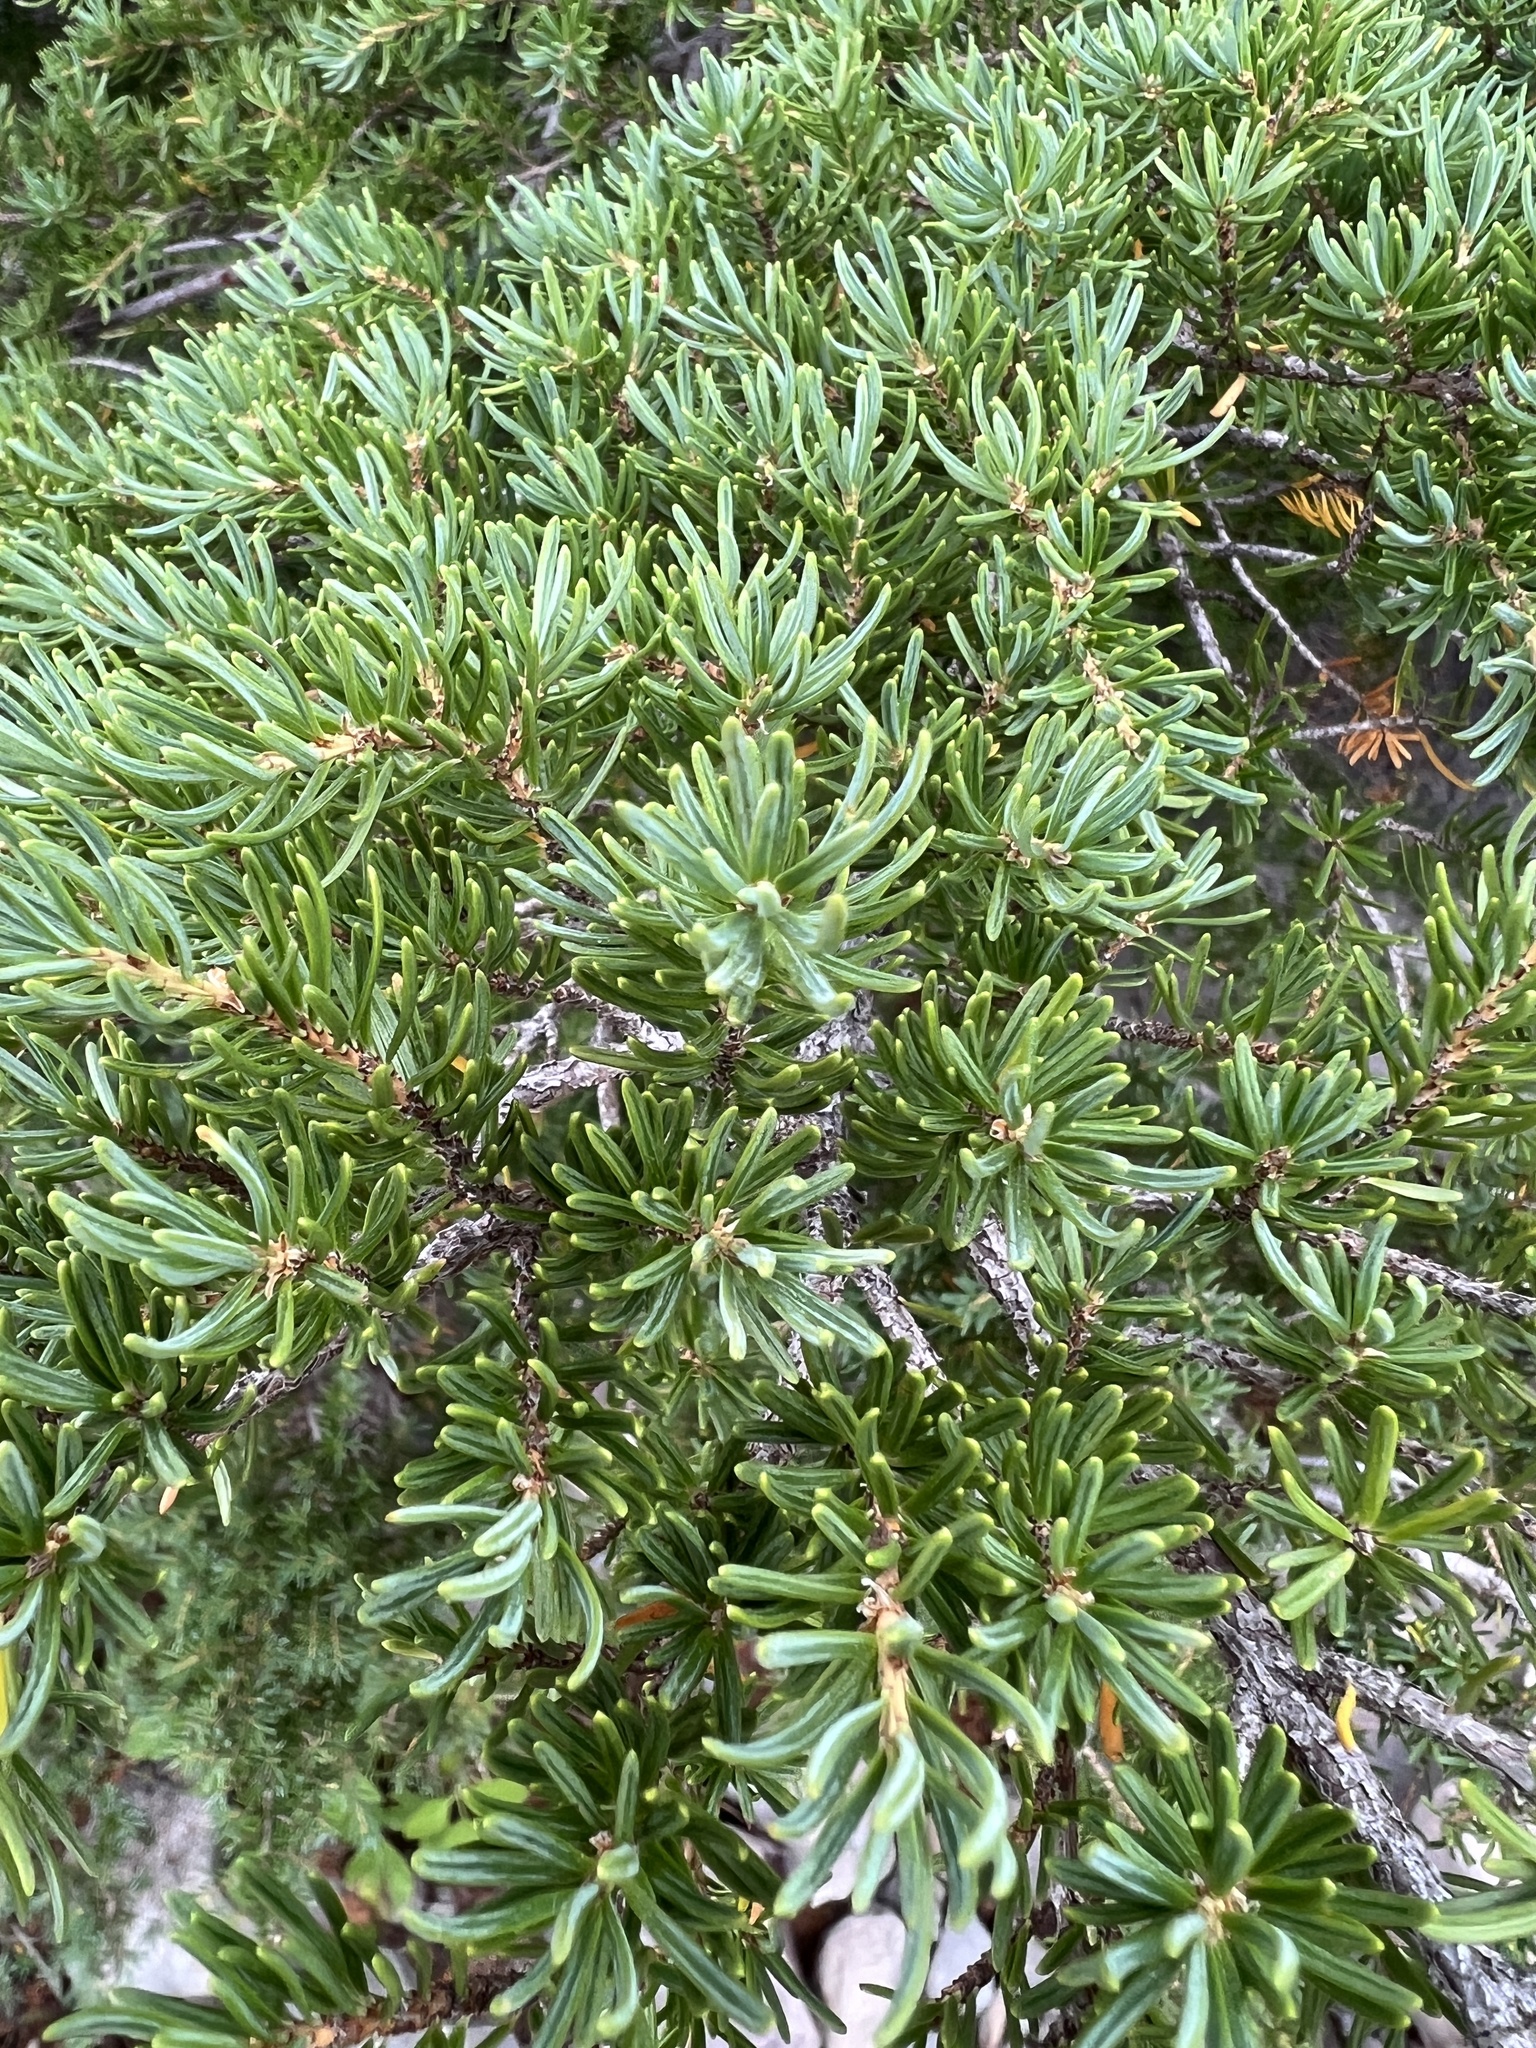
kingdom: Plantae
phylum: Tracheophyta
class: Pinopsida
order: Pinales
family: Pinaceae
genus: Tsuga
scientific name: Tsuga mertensiana
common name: Mountain hemlock
